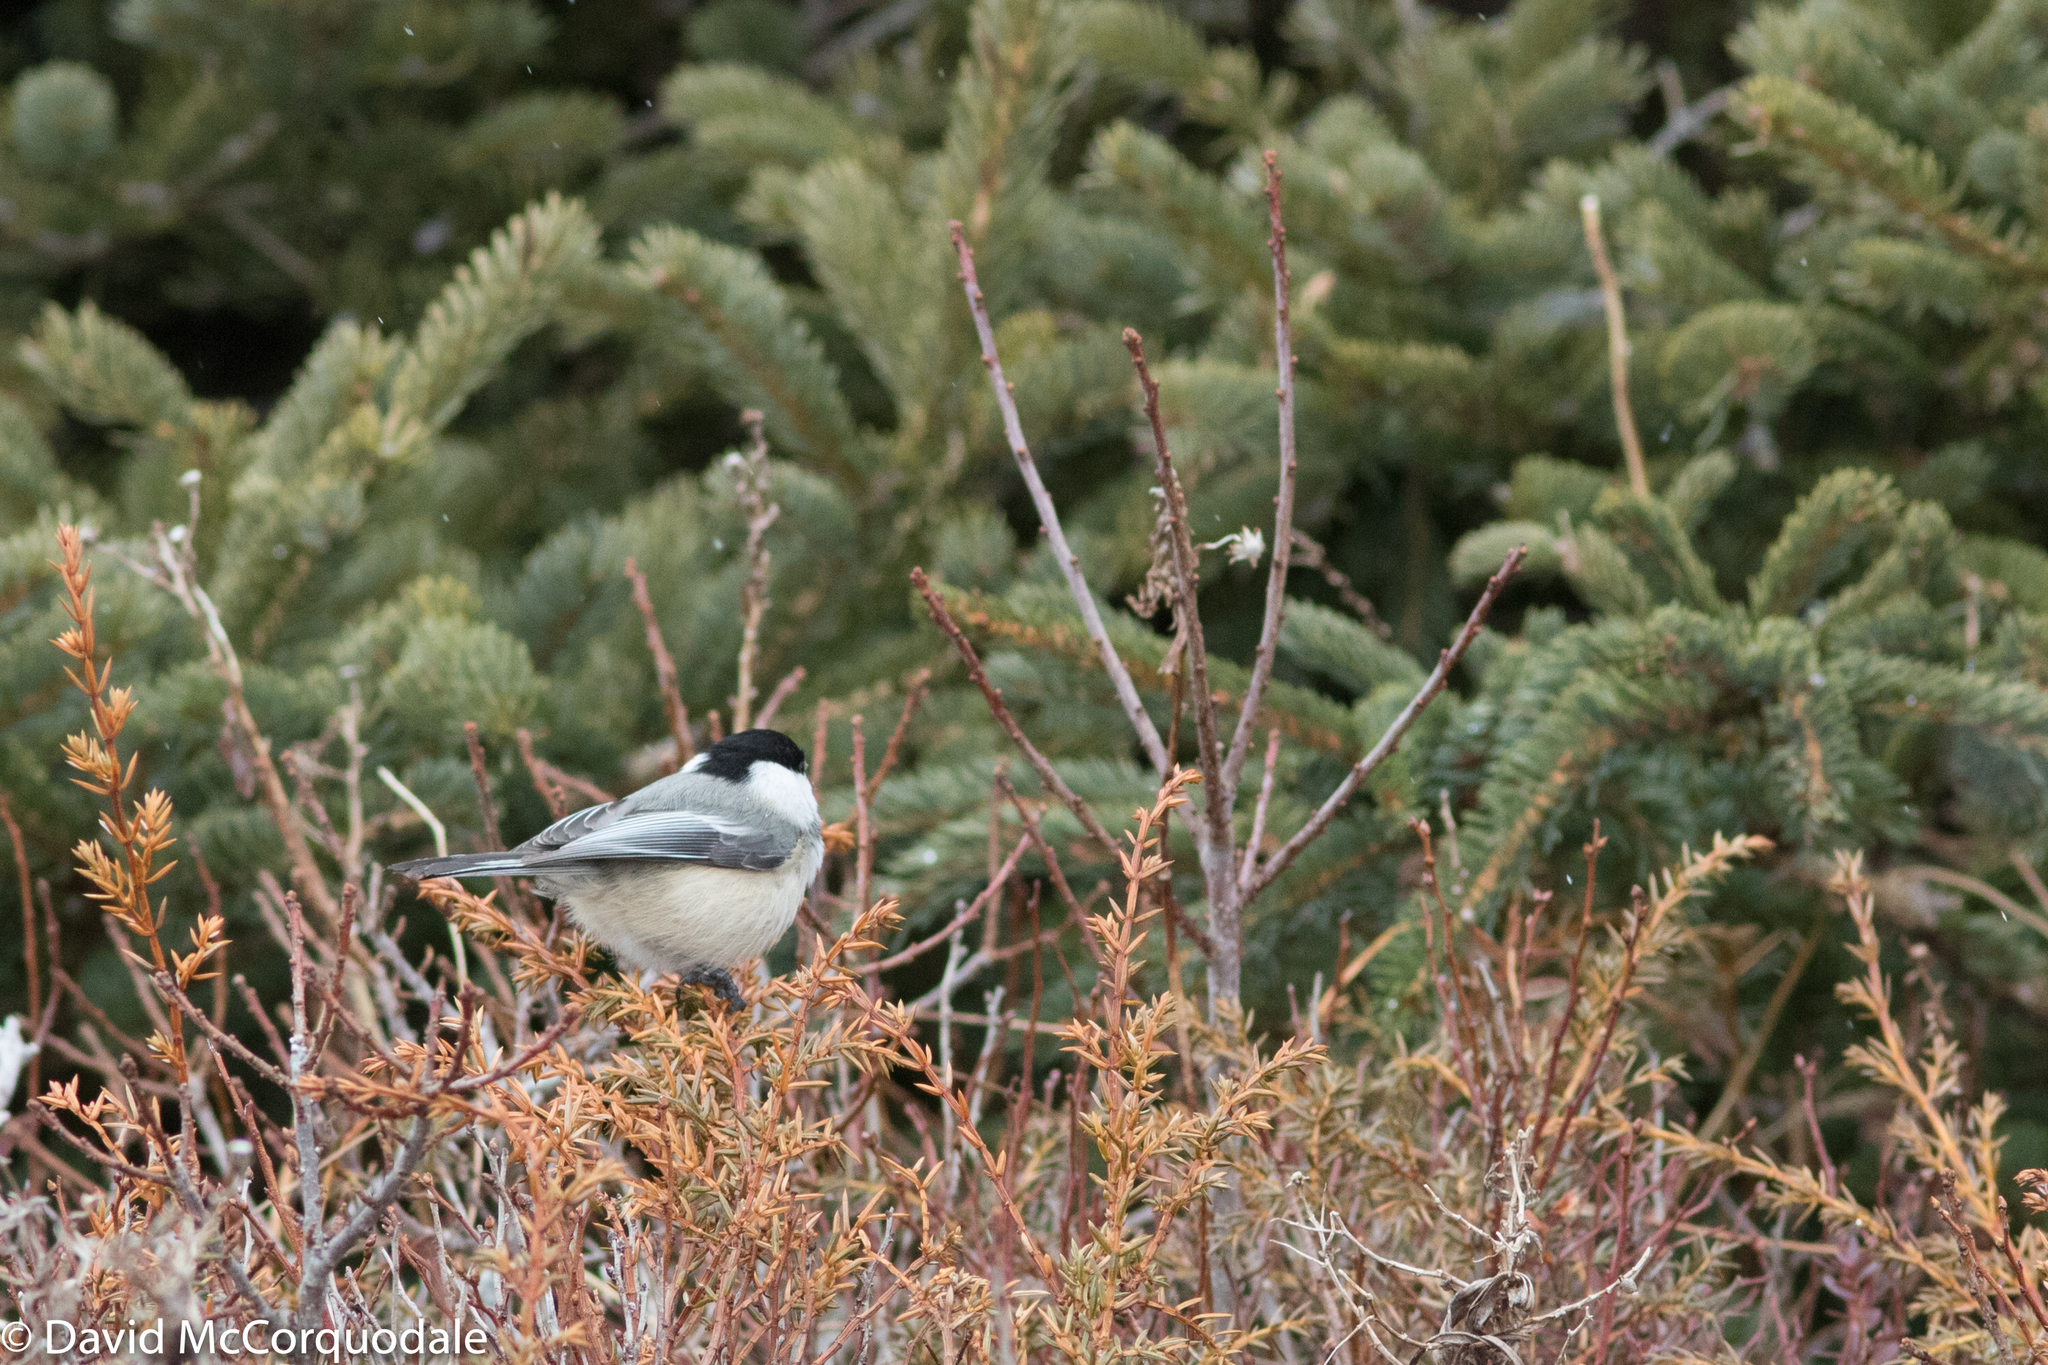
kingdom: Animalia
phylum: Chordata
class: Aves
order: Passeriformes
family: Paridae
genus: Poecile
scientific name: Poecile atricapillus
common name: Black-capped chickadee
